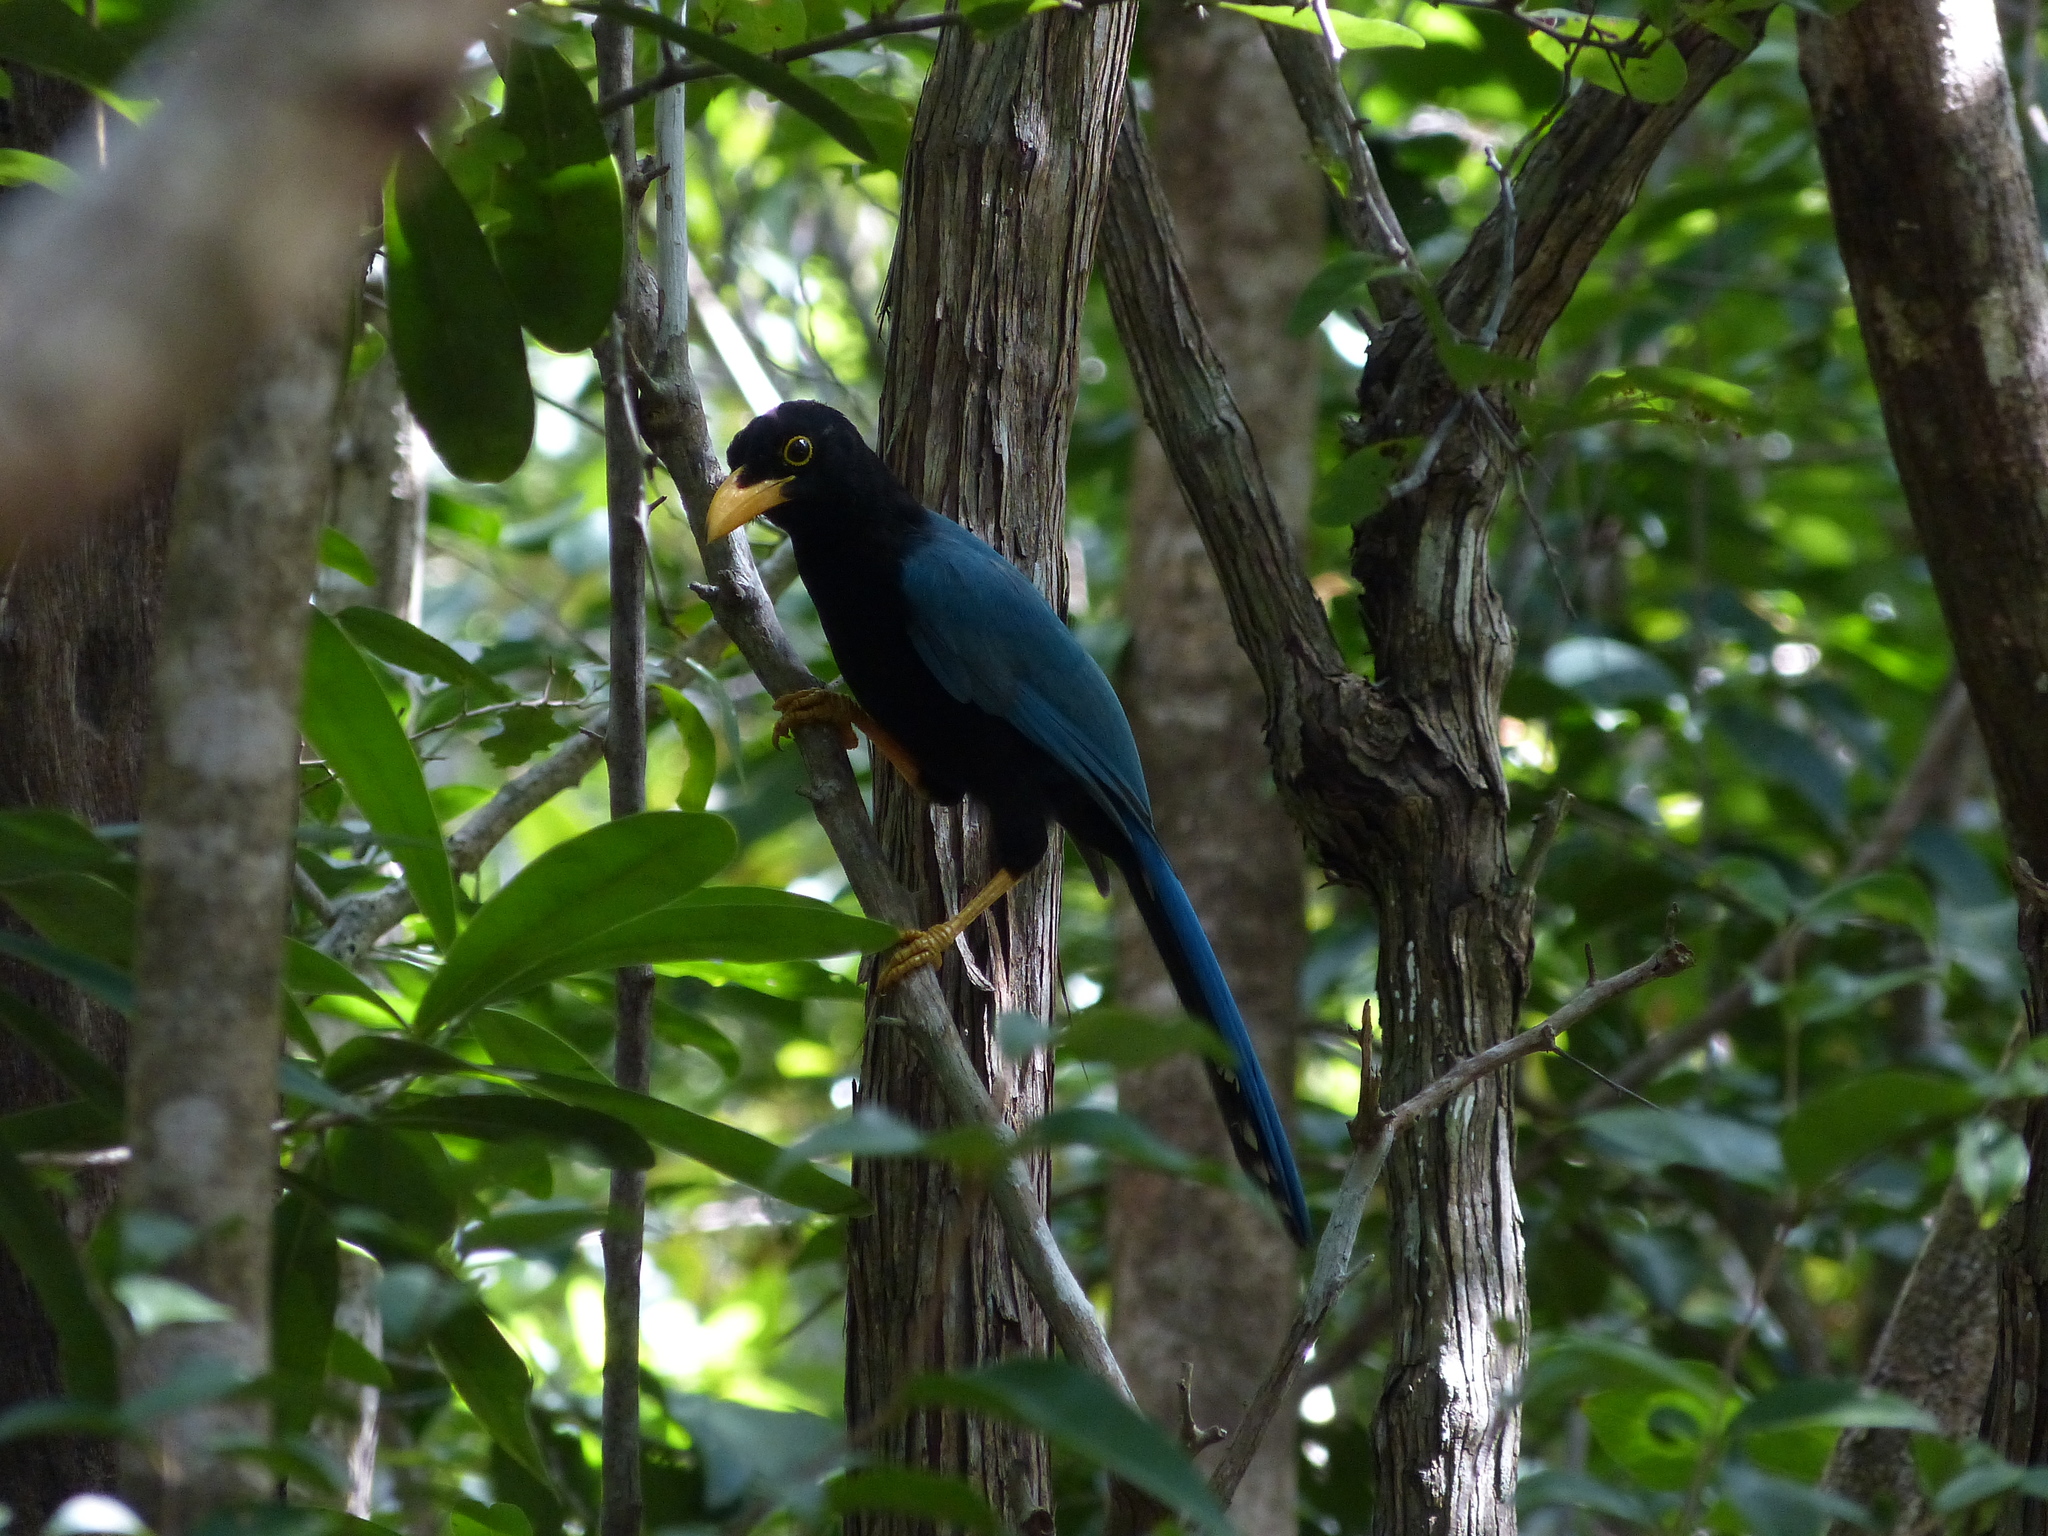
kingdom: Animalia
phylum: Chordata
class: Aves
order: Passeriformes
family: Corvidae
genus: Cyanocorax
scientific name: Cyanocorax yucatanicus
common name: Yucatan jay
